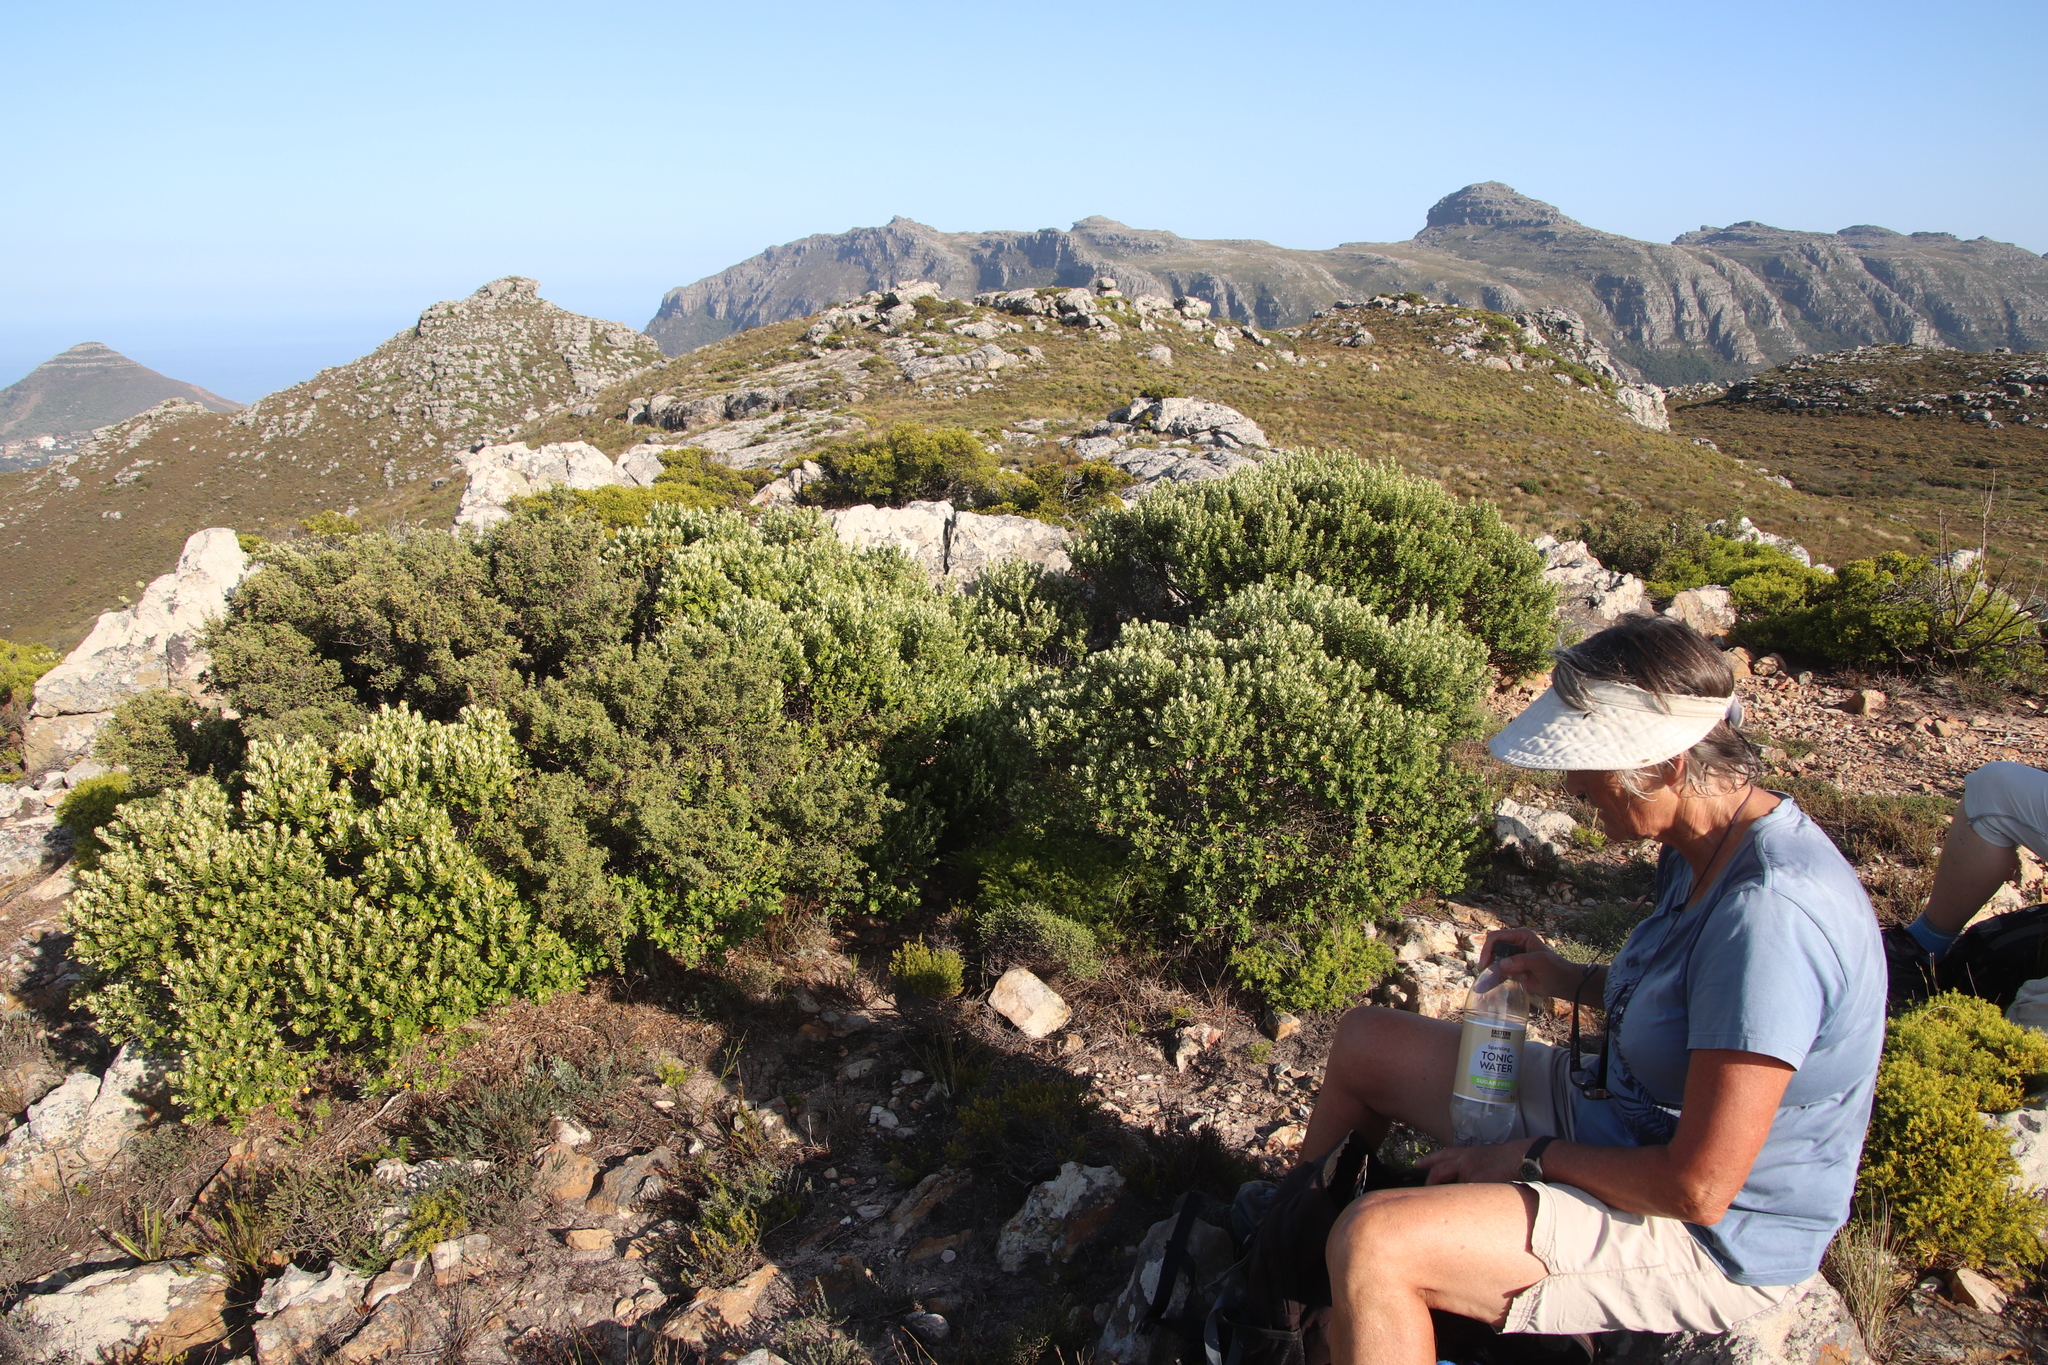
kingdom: Plantae
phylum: Tracheophyta
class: Magnoliopsida
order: Rosales
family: Rhamnaceae
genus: Phylica
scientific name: Phylica buxifolia
